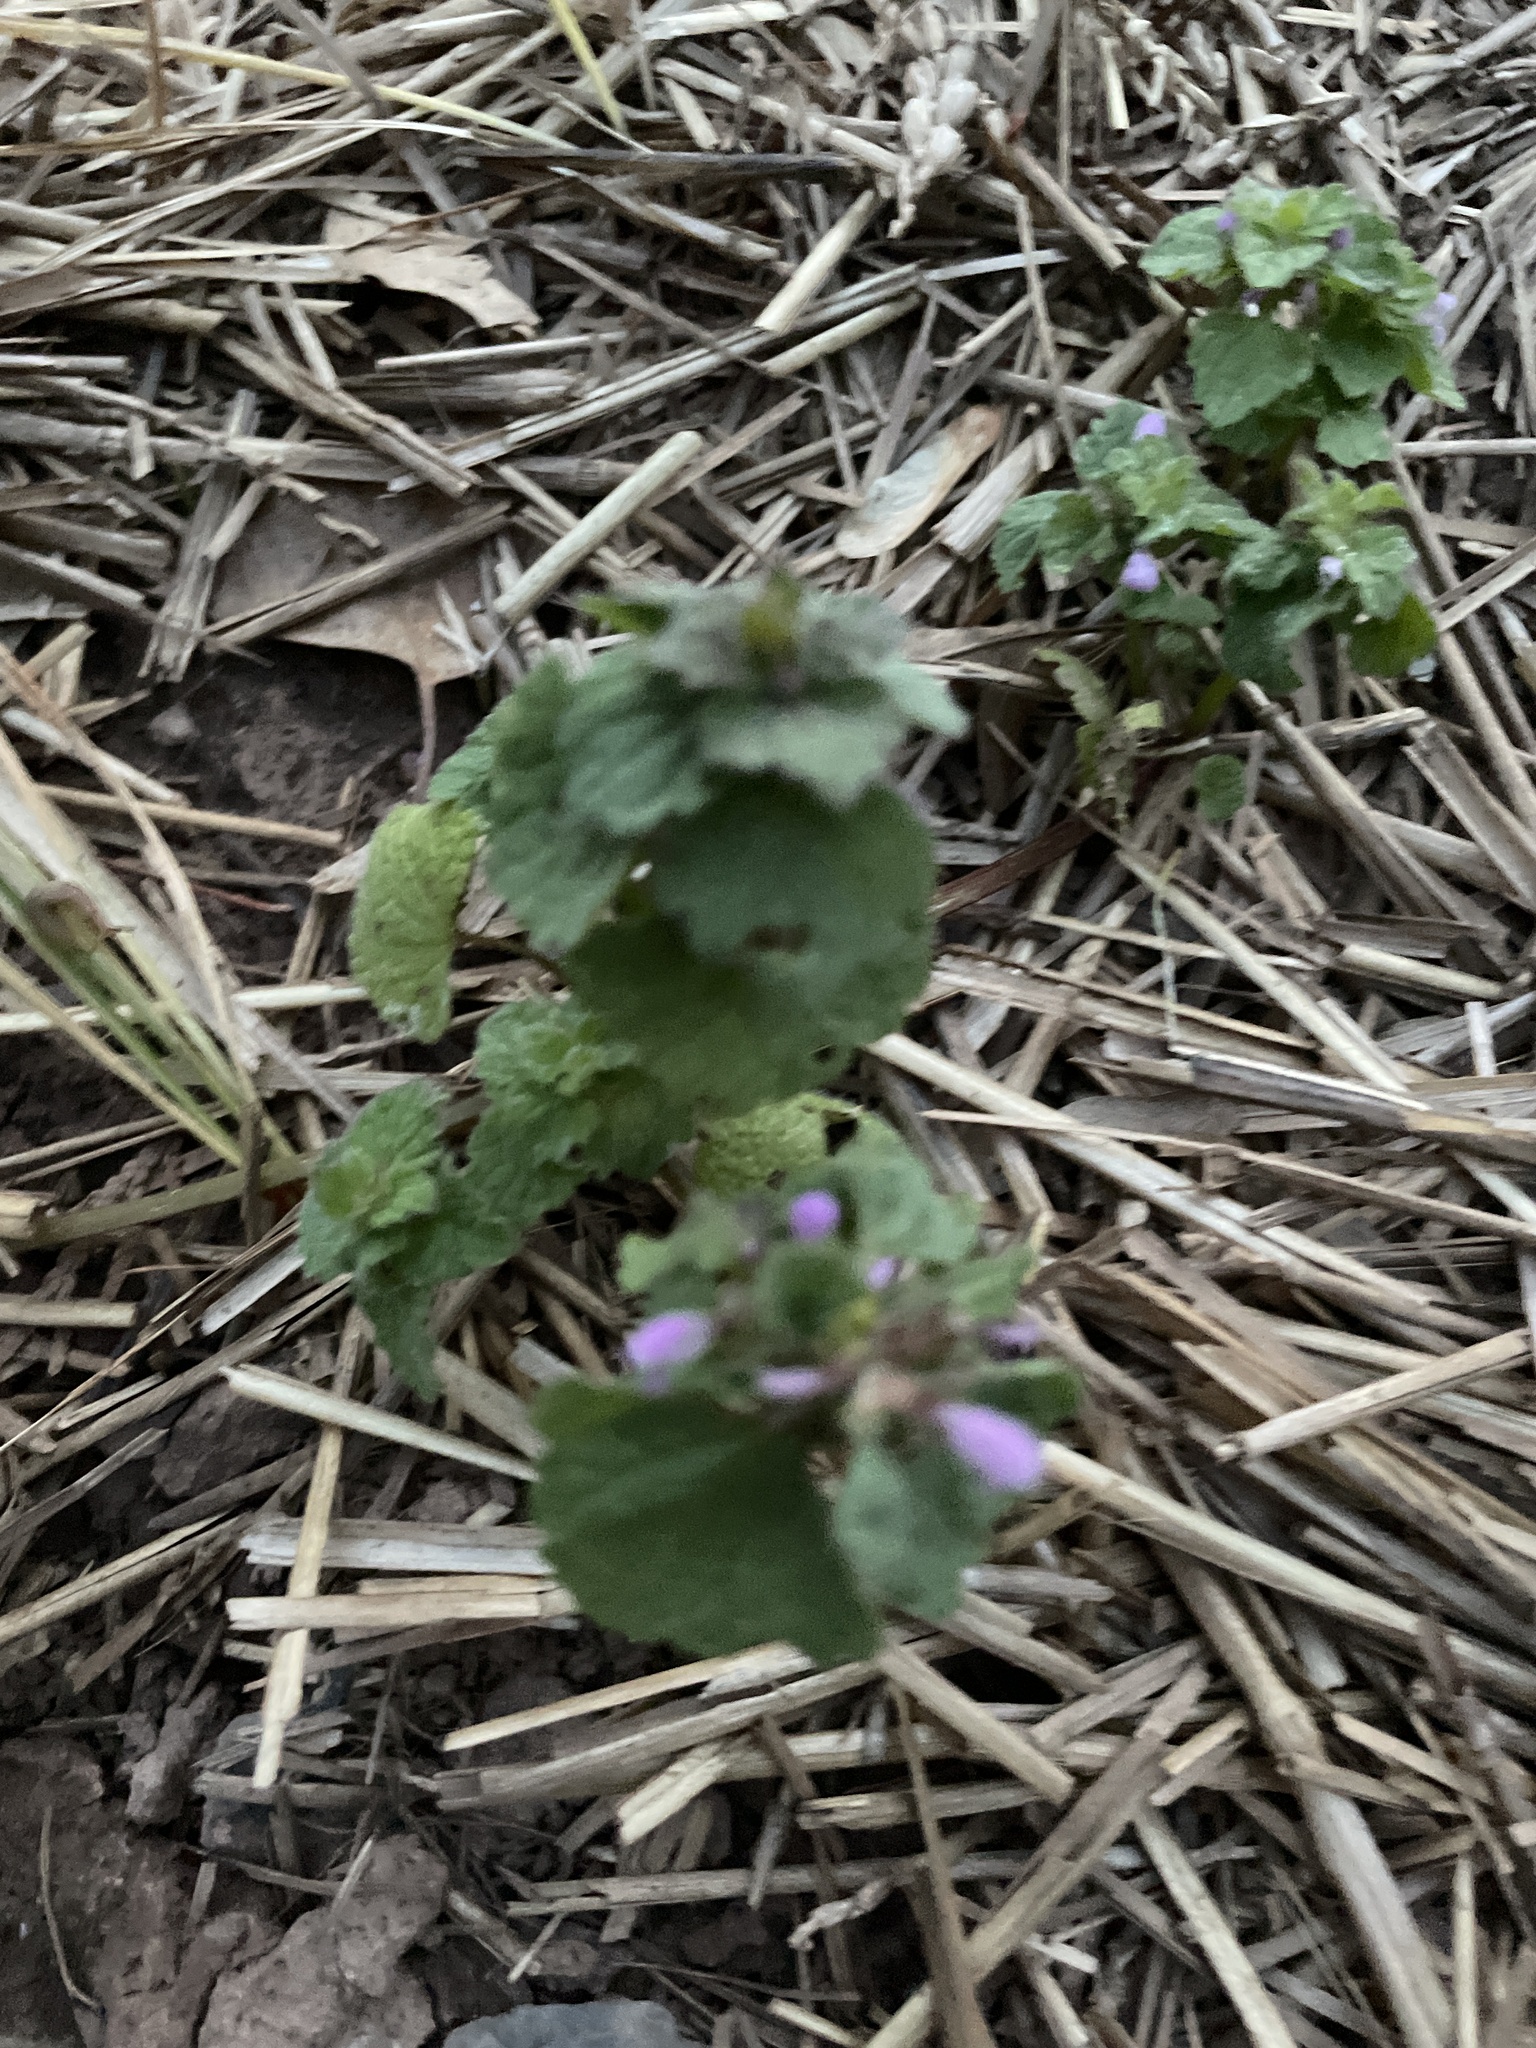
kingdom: Plantae
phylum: Tracheophyta
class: Magnoliopsida
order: Lamiales
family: Lamiaceae
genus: Lamium
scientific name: Lamium purpureum
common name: Red dead-nettle
